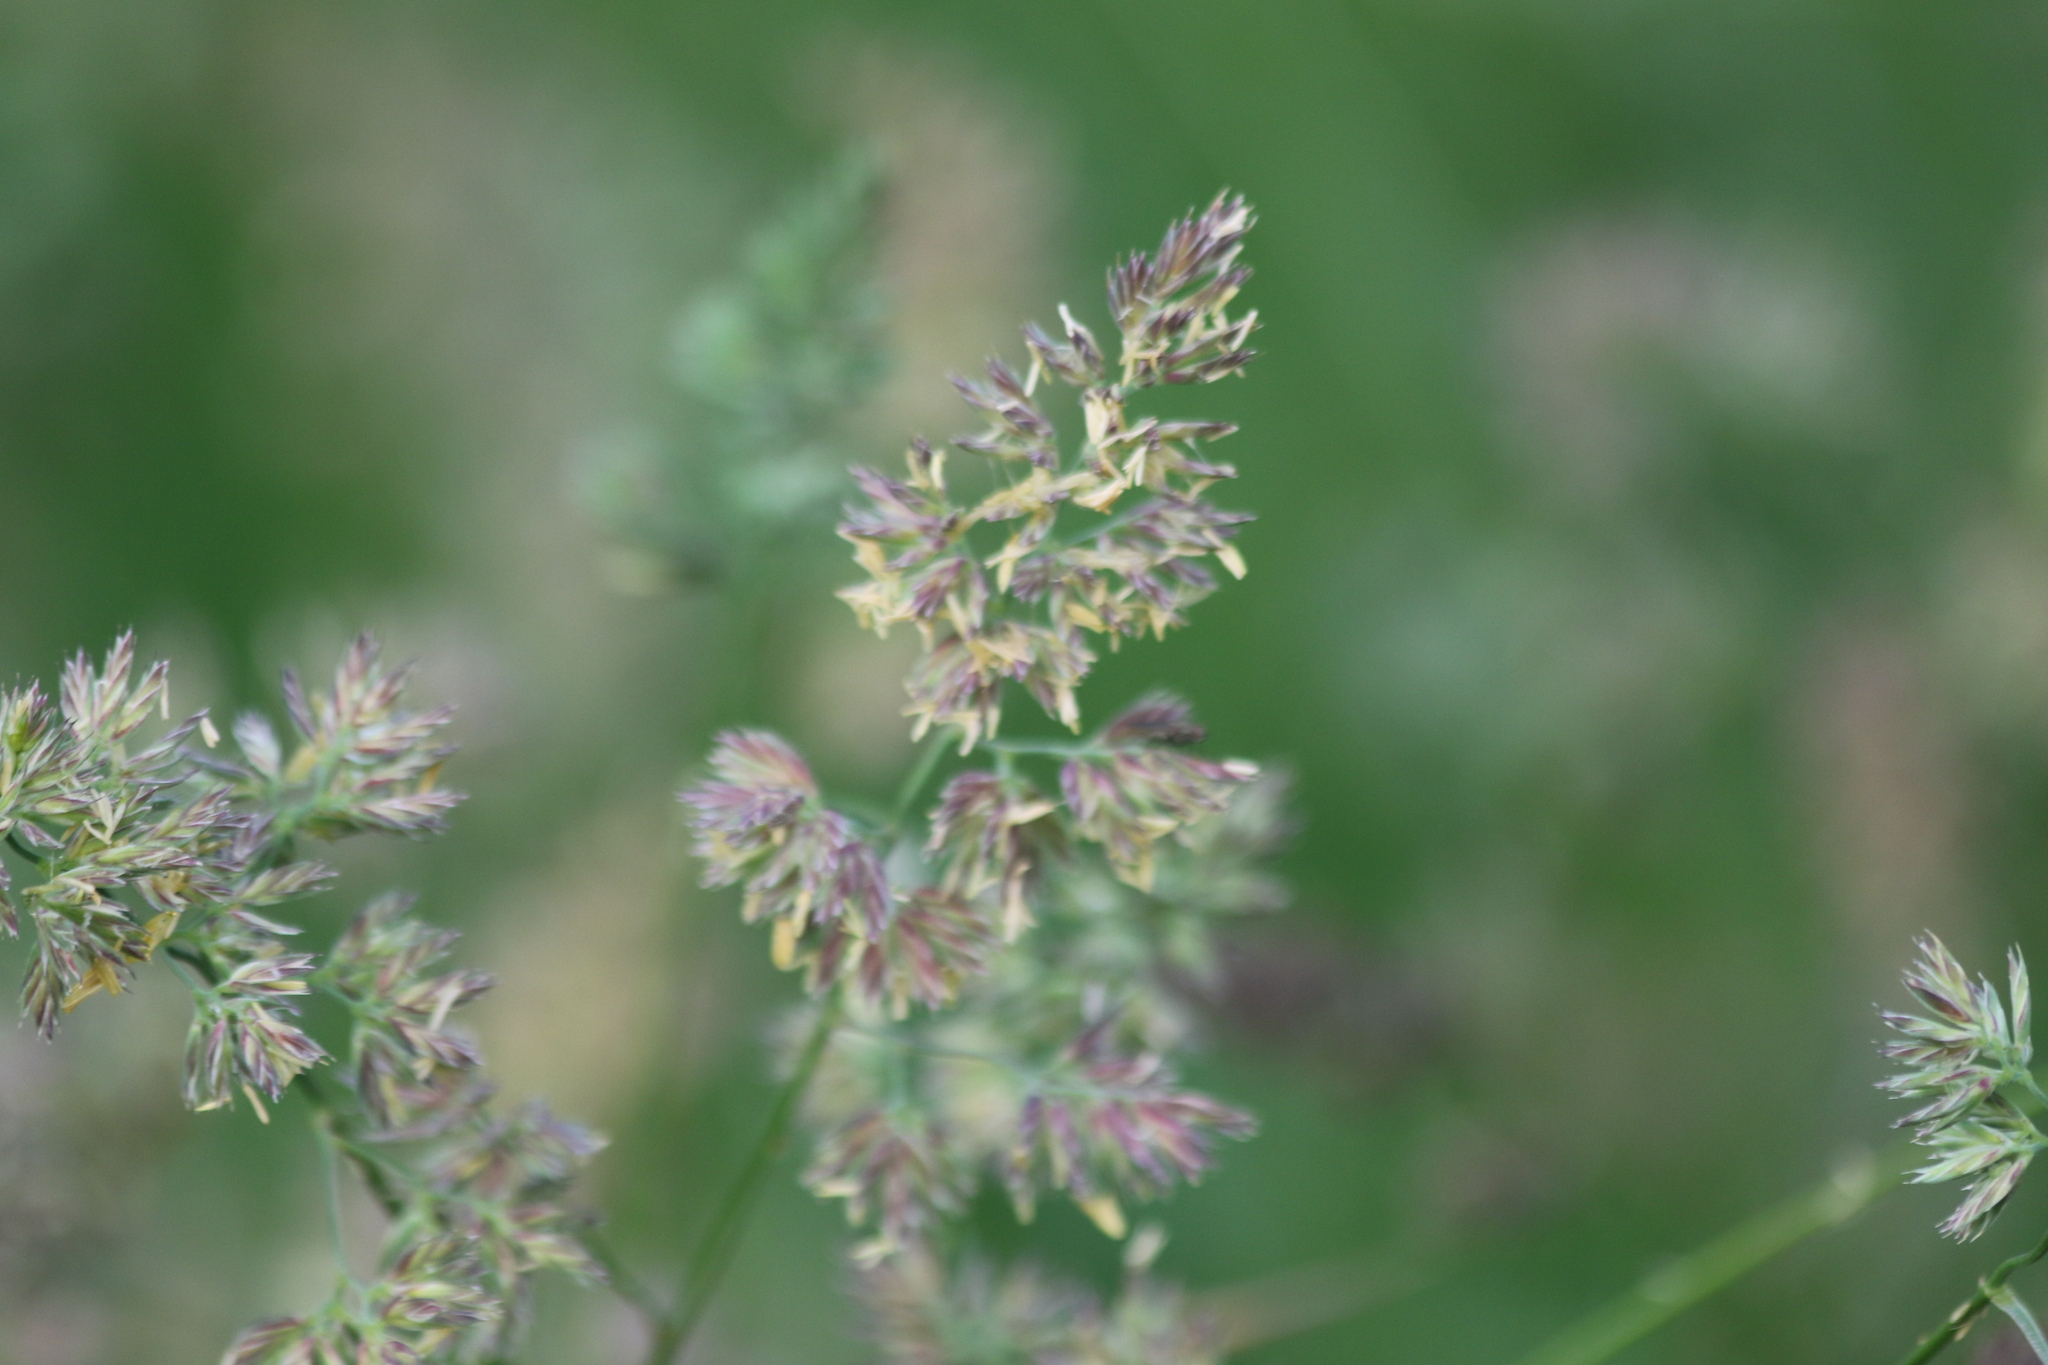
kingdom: Plantae
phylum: Tracheophyta
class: Liliopsida
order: Poales
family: Poaceae
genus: Dactylis
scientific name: Dactylis glomerata
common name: Orchardgrass
